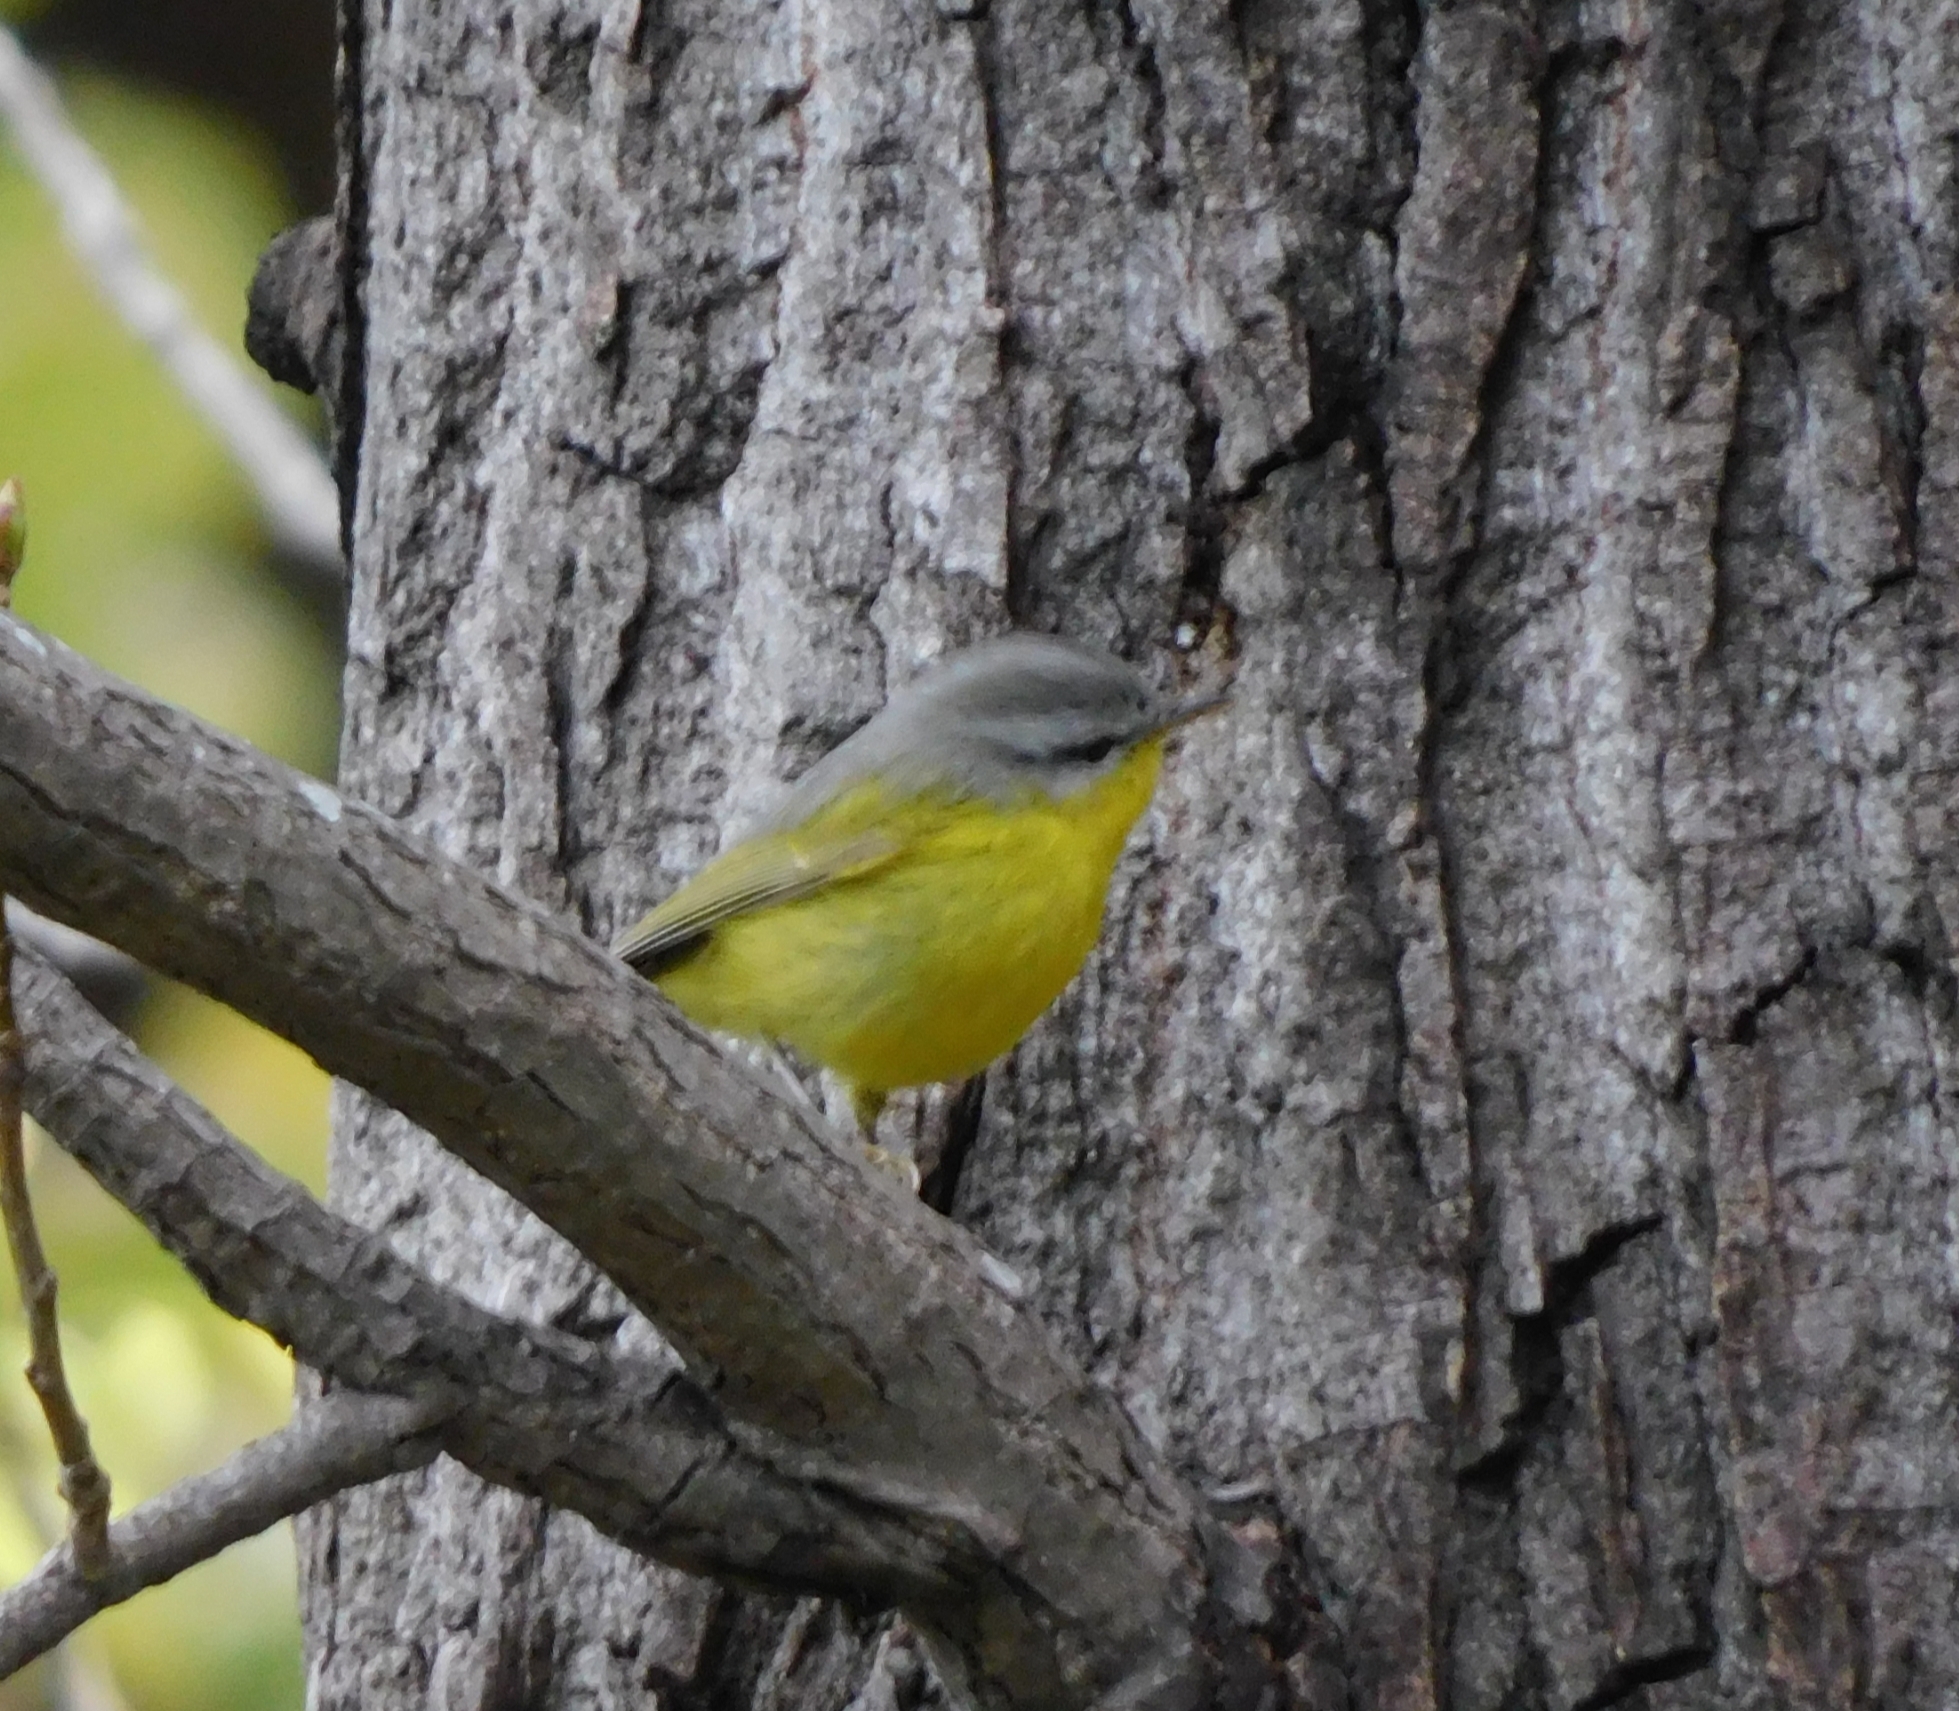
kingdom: Animalia
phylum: Chordata
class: Aves
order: Passeriformes
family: Phylloscopidae
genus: Phylloscopus
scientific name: Phylloscopus xanthoschistos
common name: Grey-hooded warbler
